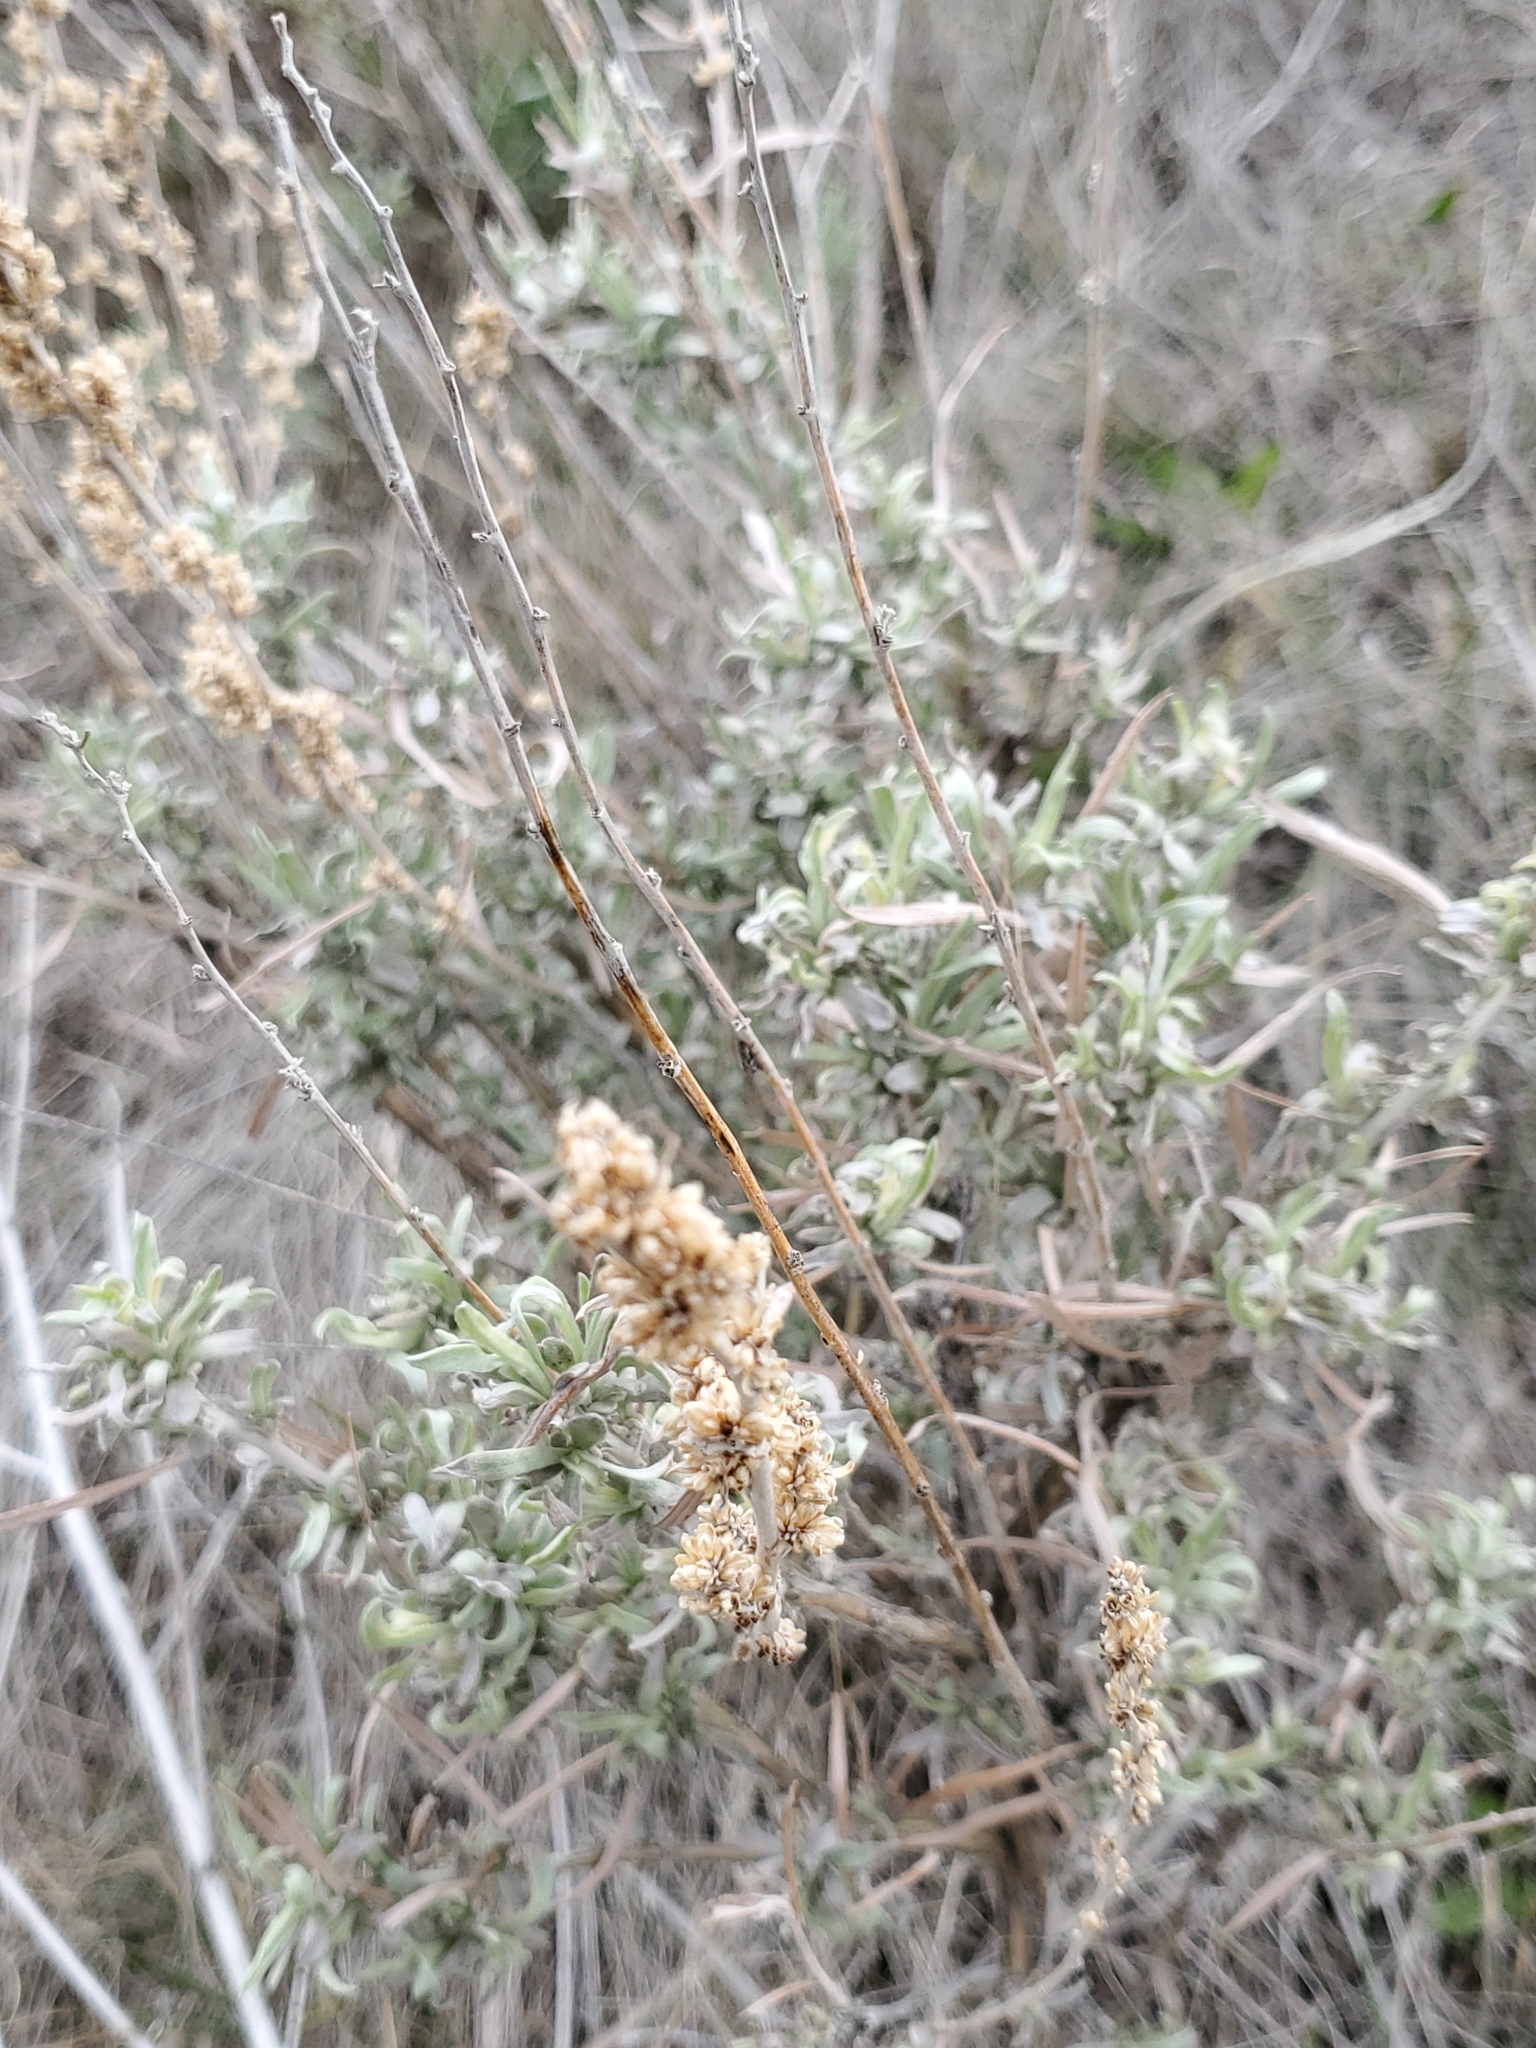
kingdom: Plantae
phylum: Tracheophyta
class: Magnoliopsida
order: Asterales
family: Asteraceae
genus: Artemisia
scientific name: Artemisia cana
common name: Silver sagebrush
